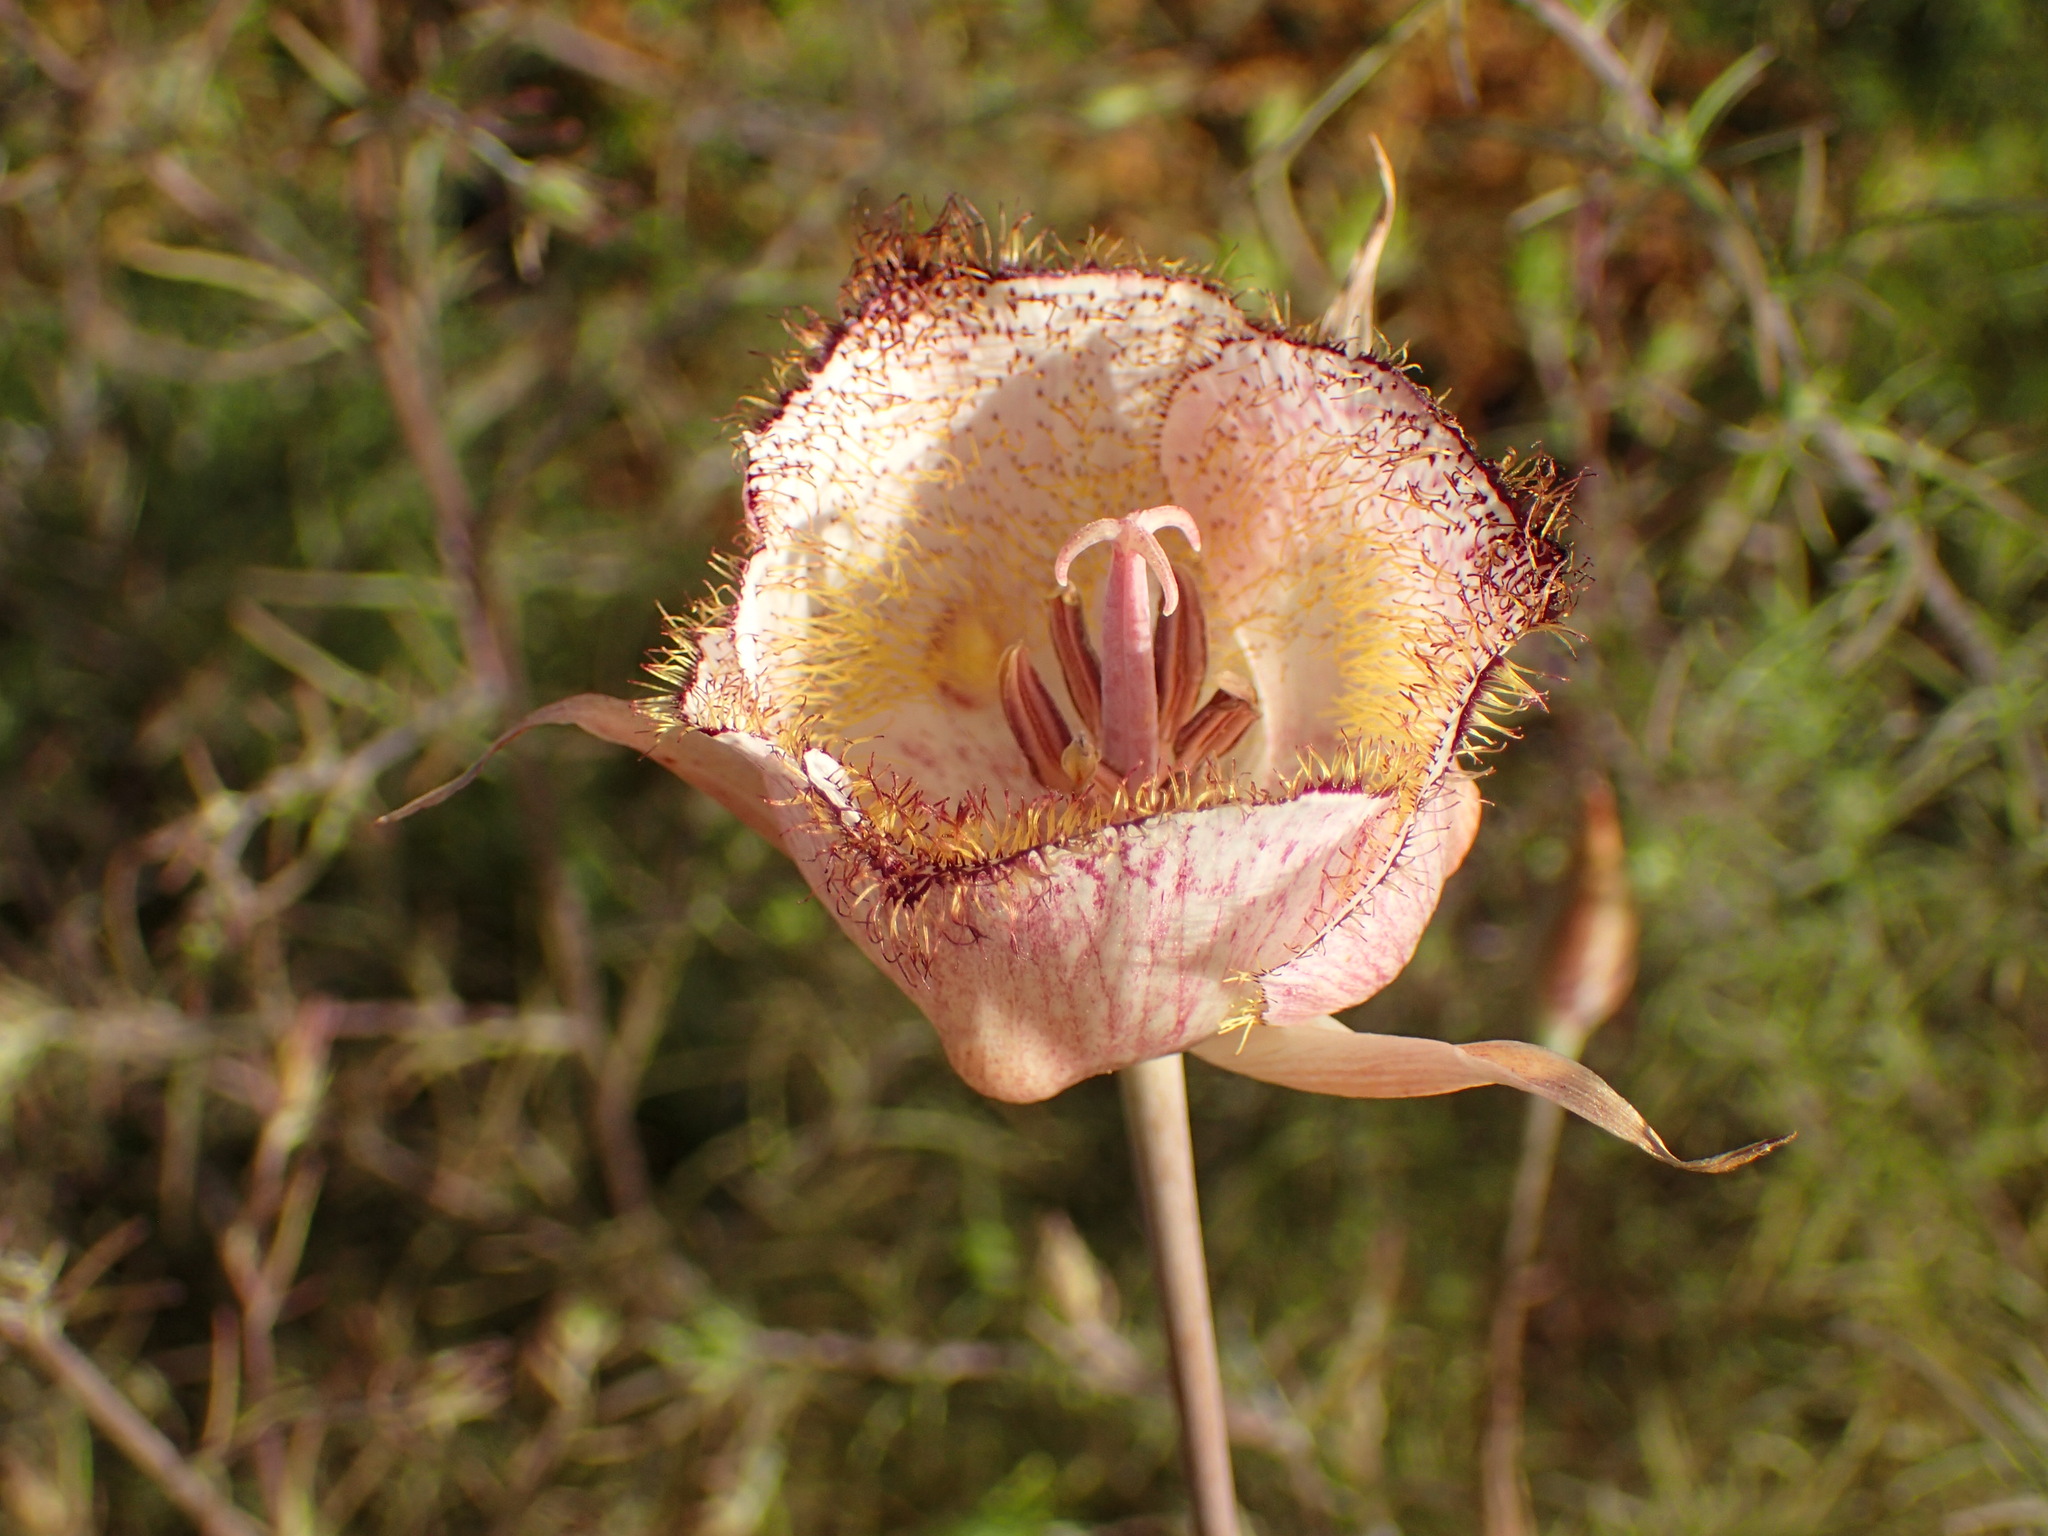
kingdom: Plantae
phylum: Tracheophyta
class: Liliopsida
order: Liliales
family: Liliaceae
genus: Calochortus
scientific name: Calochortus fimbriatus
